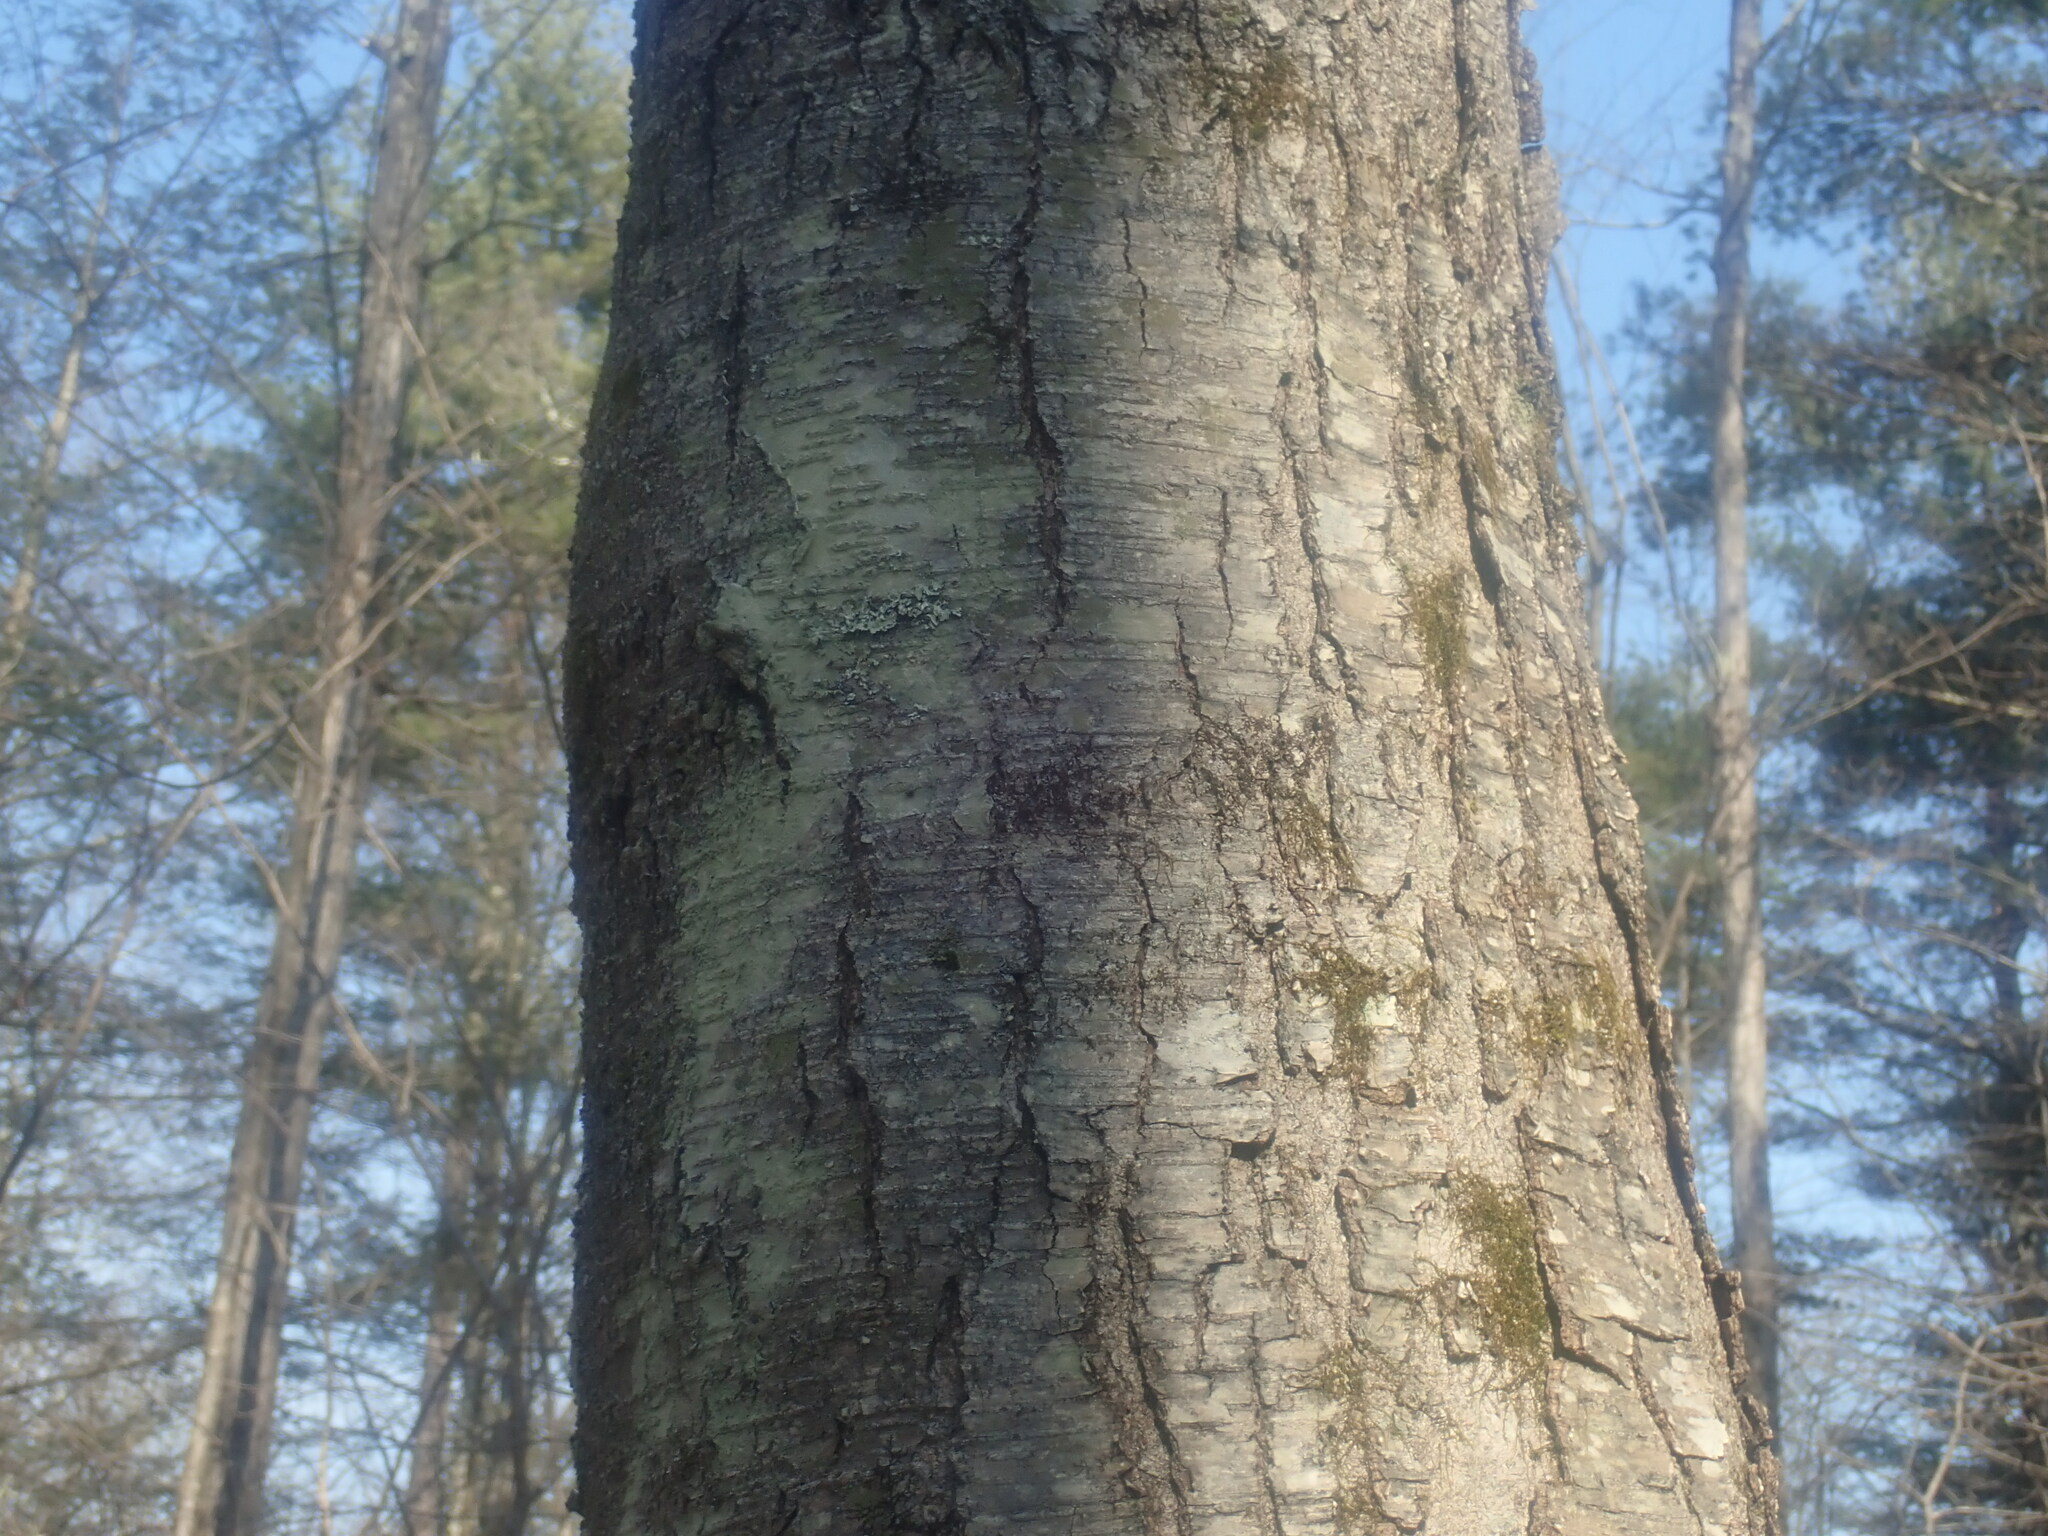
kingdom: Plantae
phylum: Tracheophyta
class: Magnoliopsida
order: Fagales
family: Betulaceae
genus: Betula
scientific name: Betula lenta
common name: Black birch
